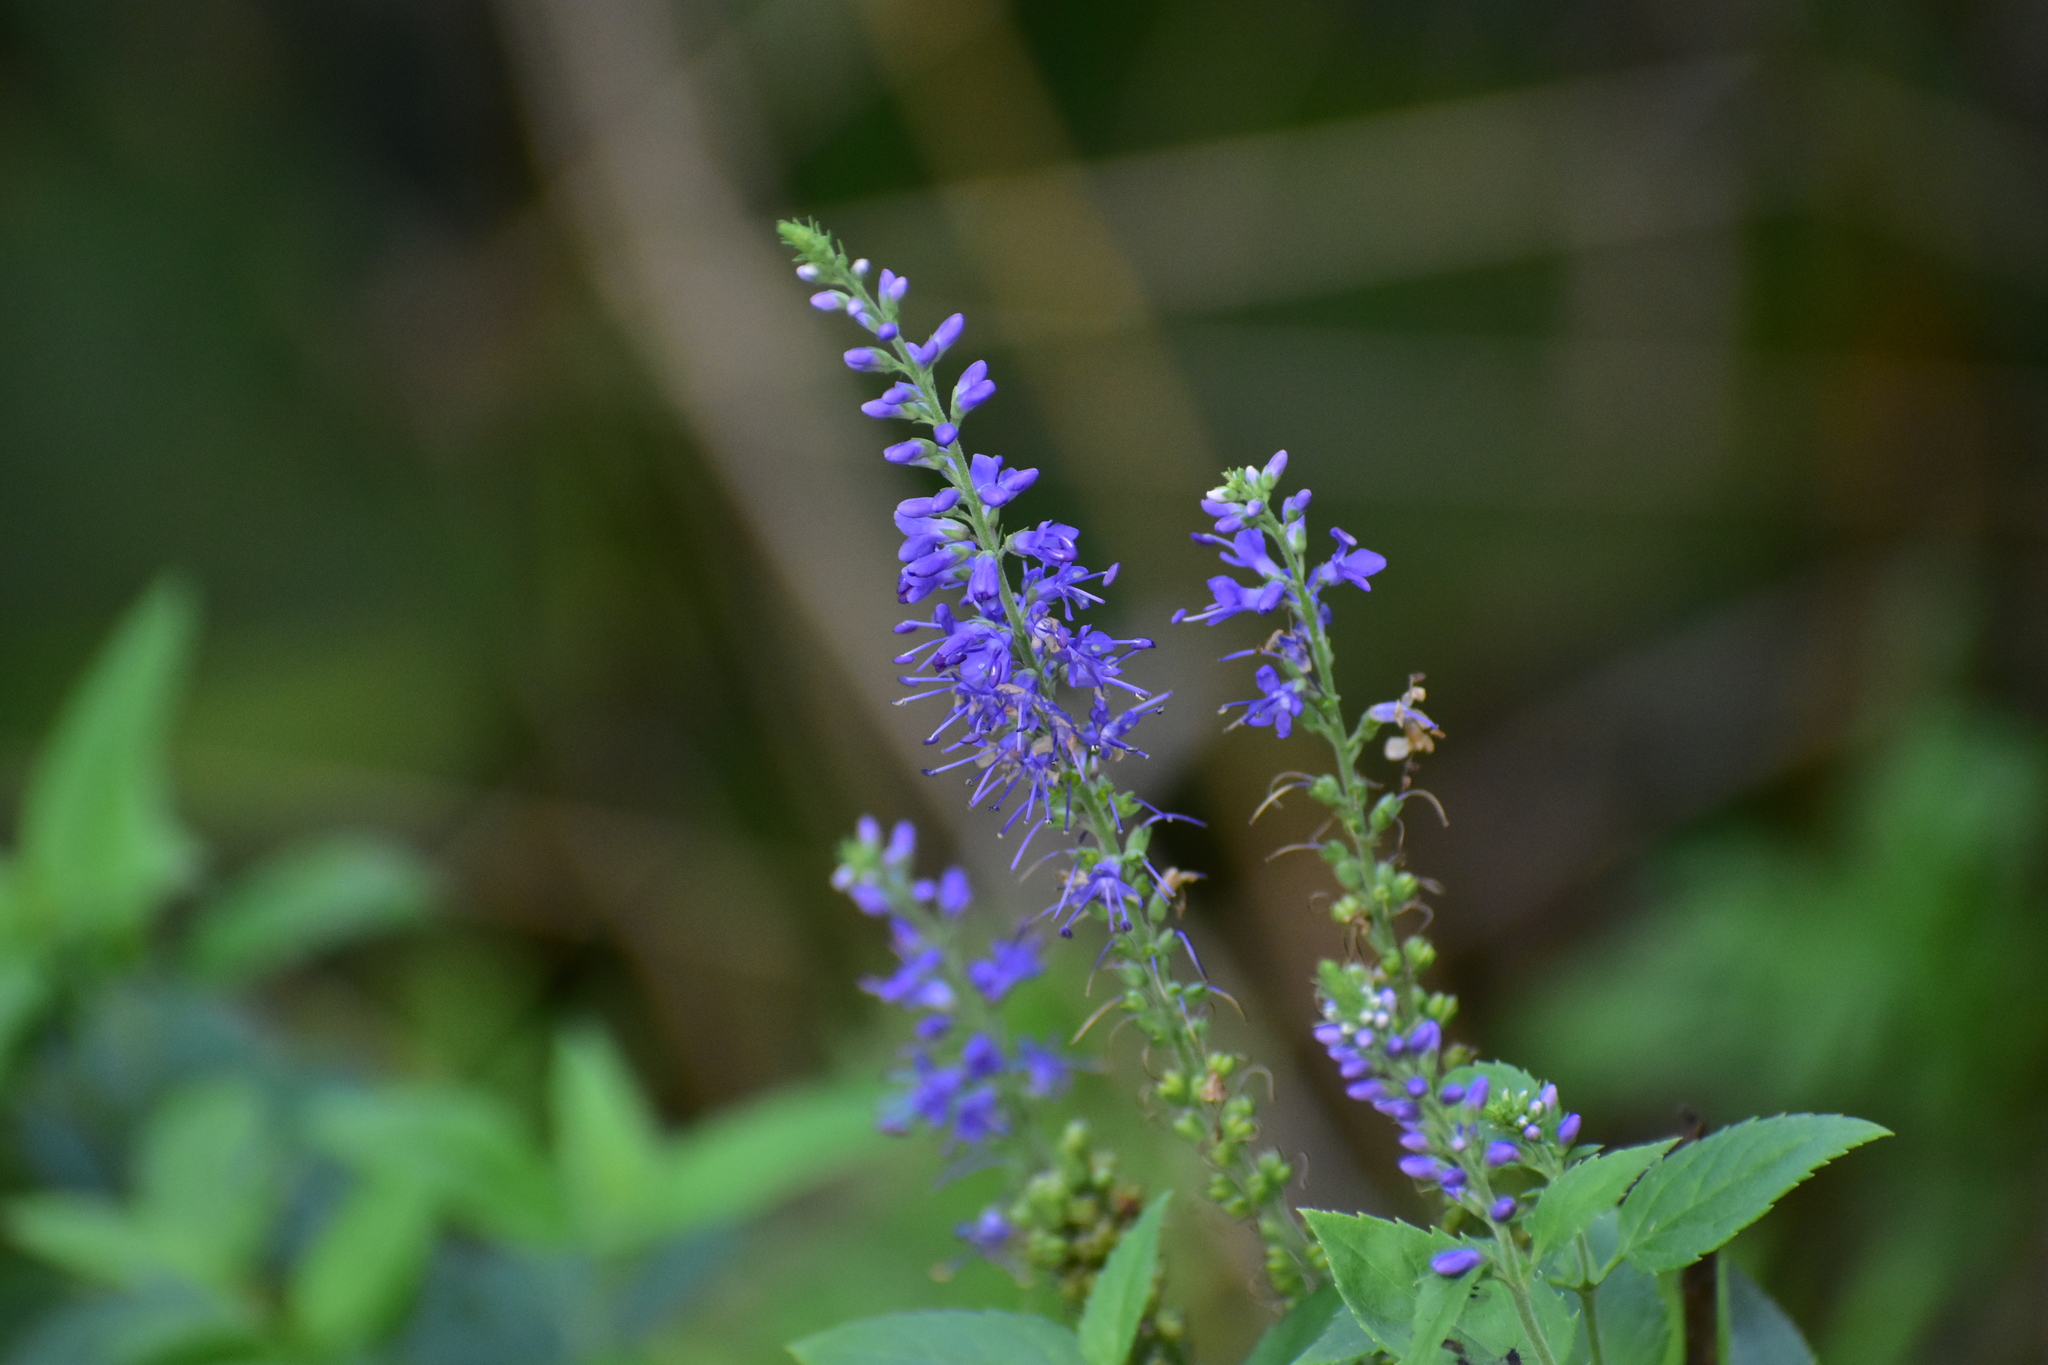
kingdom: Plantae
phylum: Tracheophyta
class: Magnoliopsida
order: Lamiales
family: Plantaginaceae
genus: Veronica
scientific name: Veronica longifolia
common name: Garden speedwell
